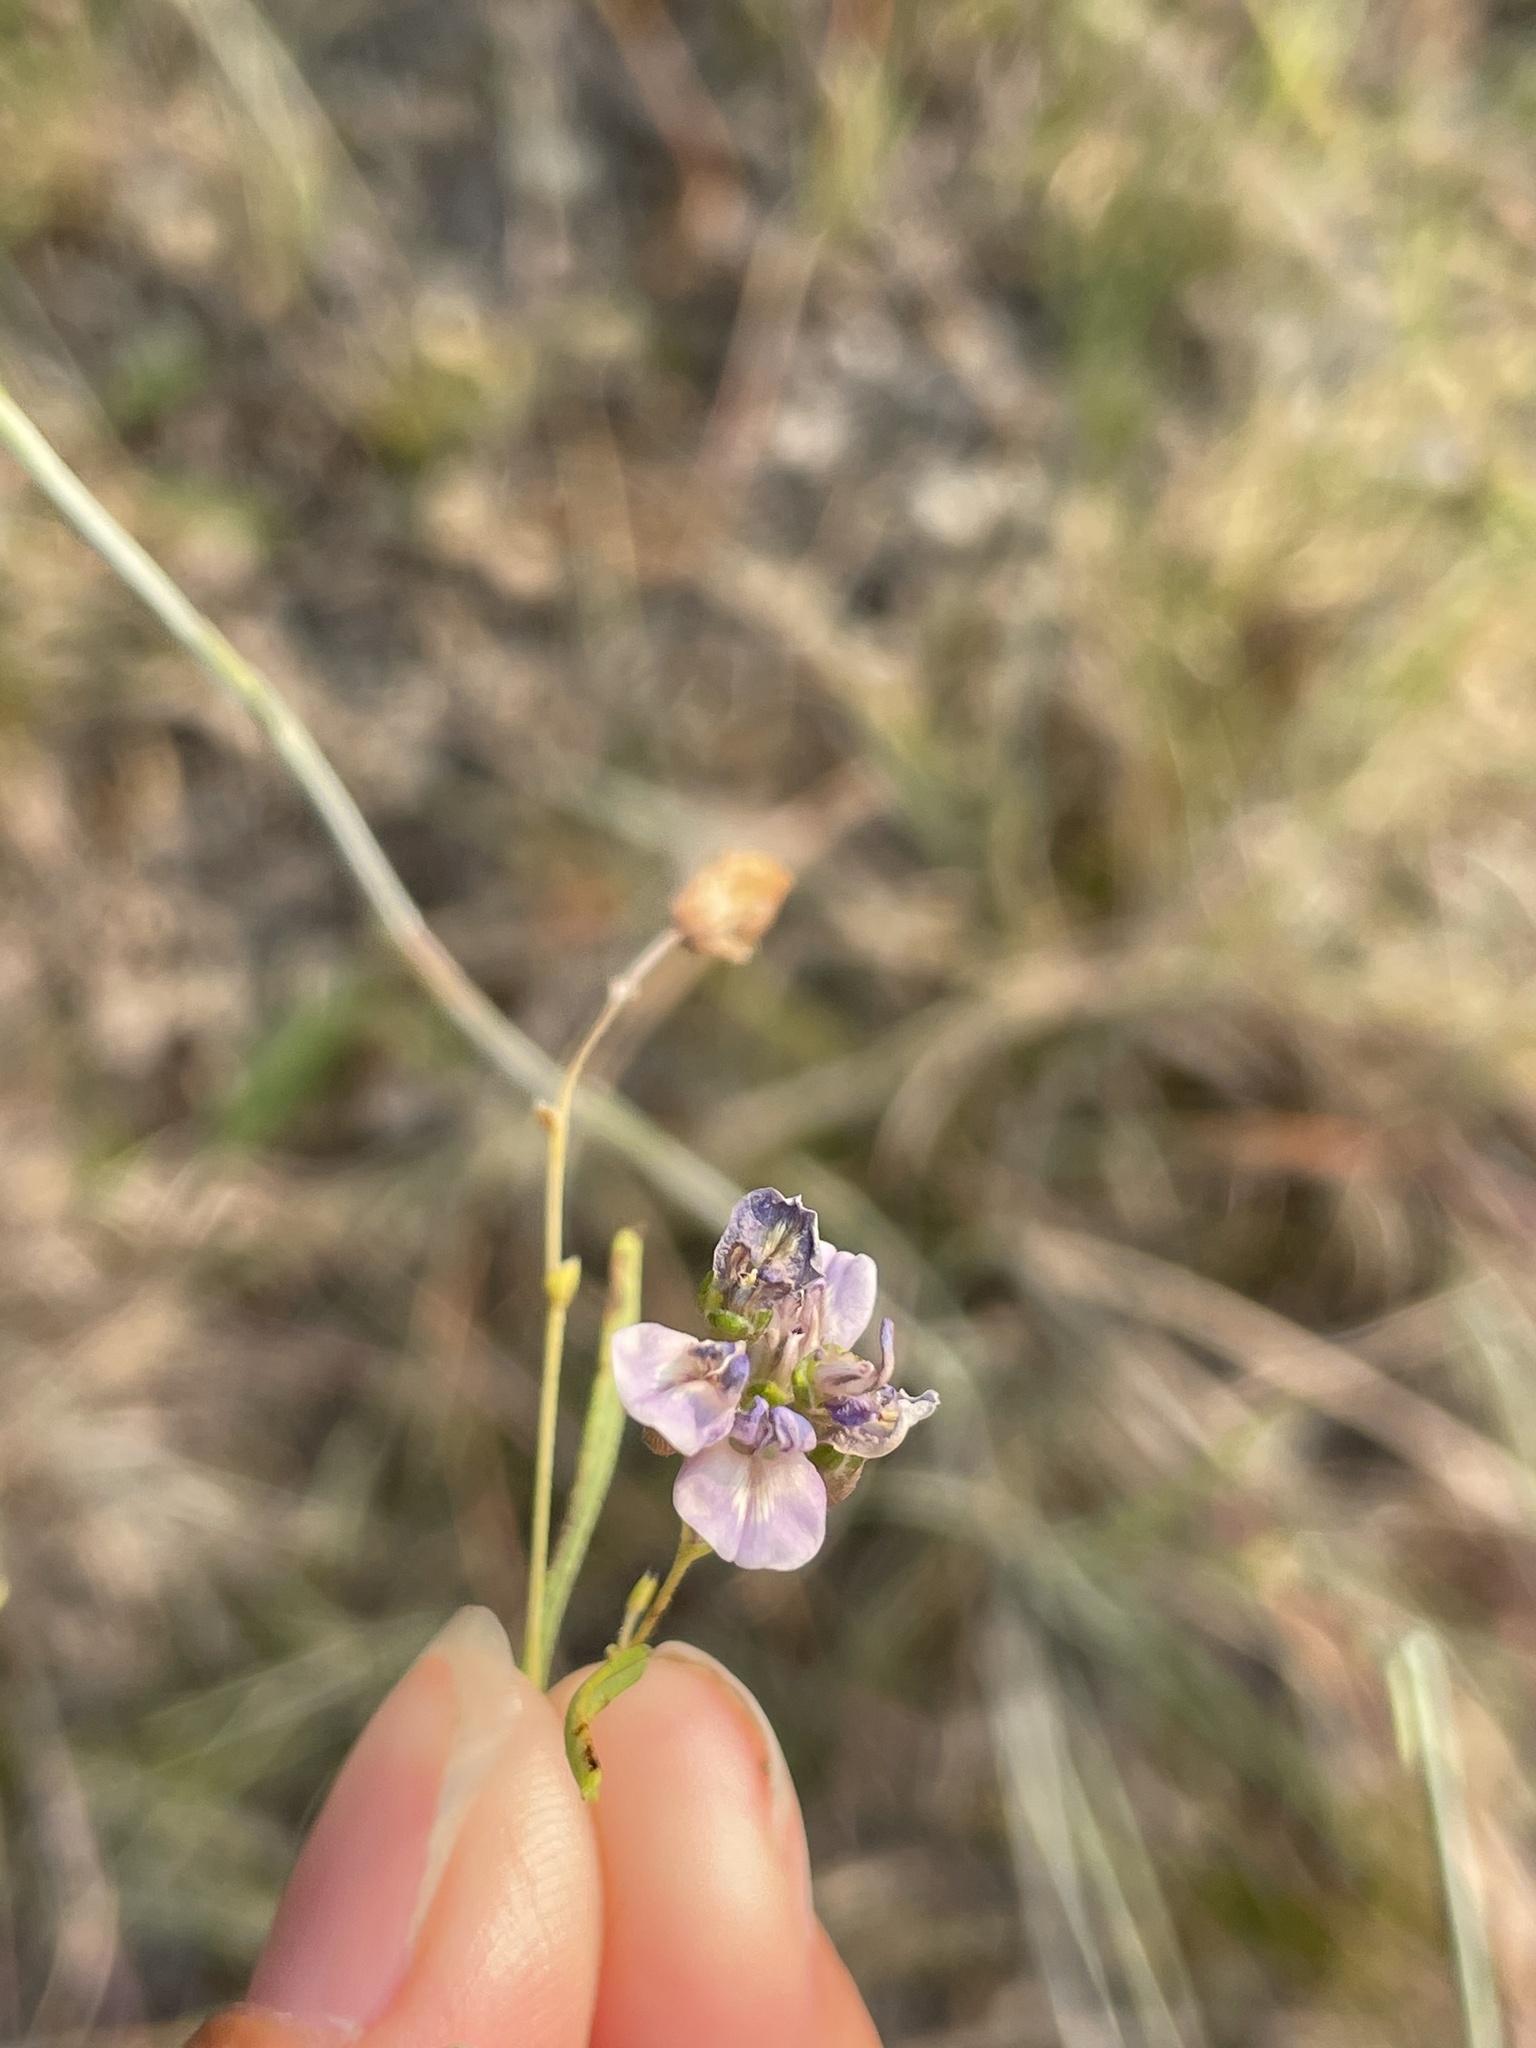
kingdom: Plantae
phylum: Tracheophyta
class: Magnoliopsida
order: Fabales
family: Fabaceae
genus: Pediomelum
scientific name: Pediomelum linearifolium
